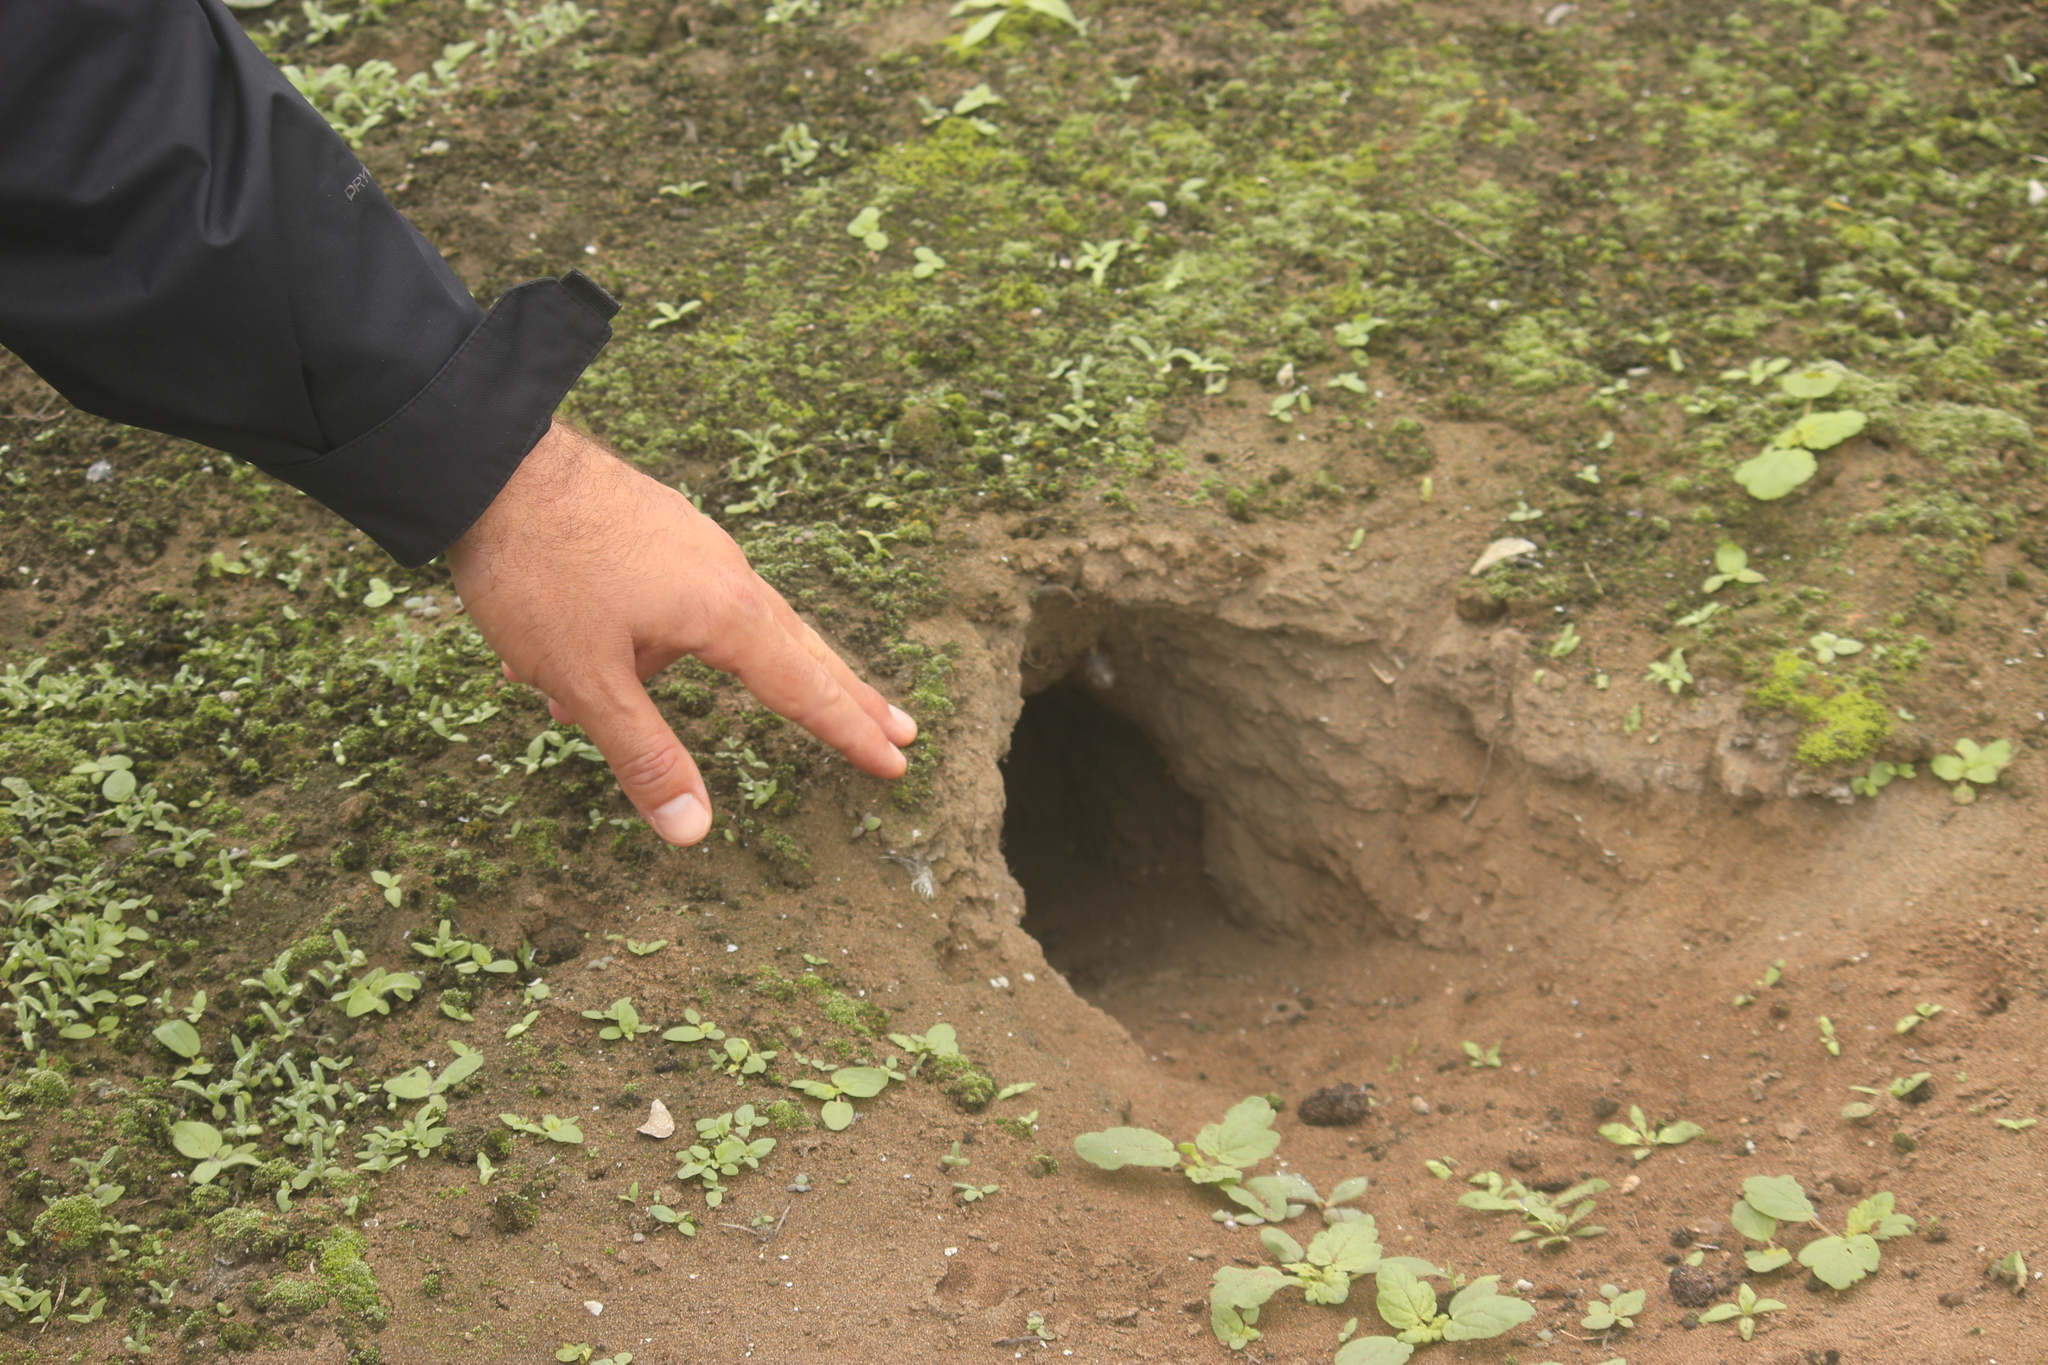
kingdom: Animalia
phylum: Chordata
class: Aves
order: Strigiformes
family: Strigidae
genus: Athene
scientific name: Athene cunicularia
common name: Burrowing owl
